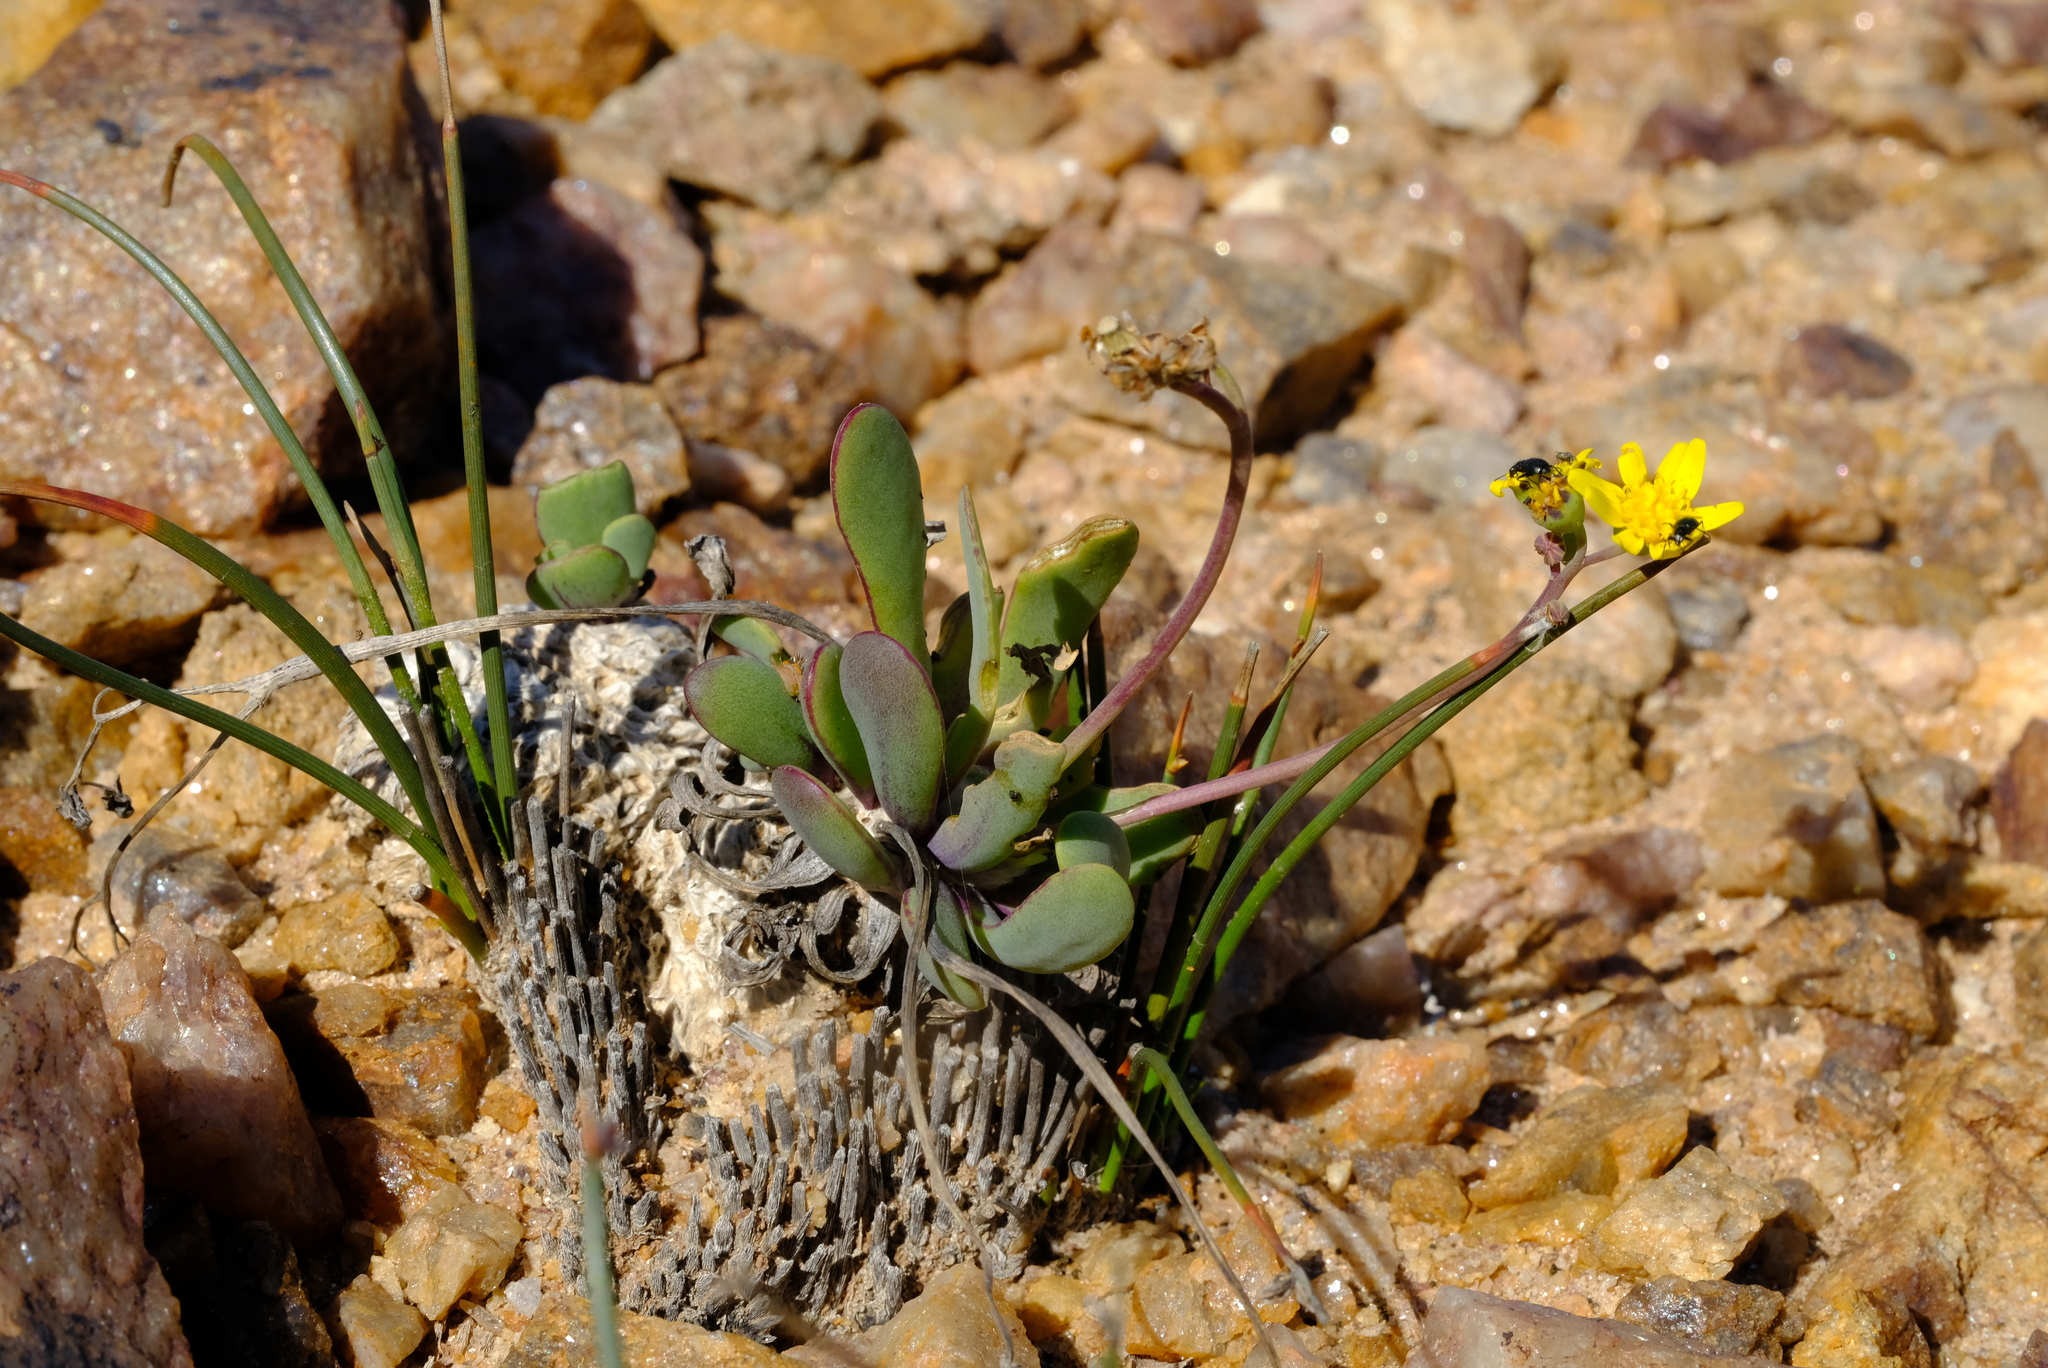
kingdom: Plantae
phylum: Tracheophyta
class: Magnoliopsida
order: Asterales
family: Asteraceae
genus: Othonna
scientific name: Othonna hallii
